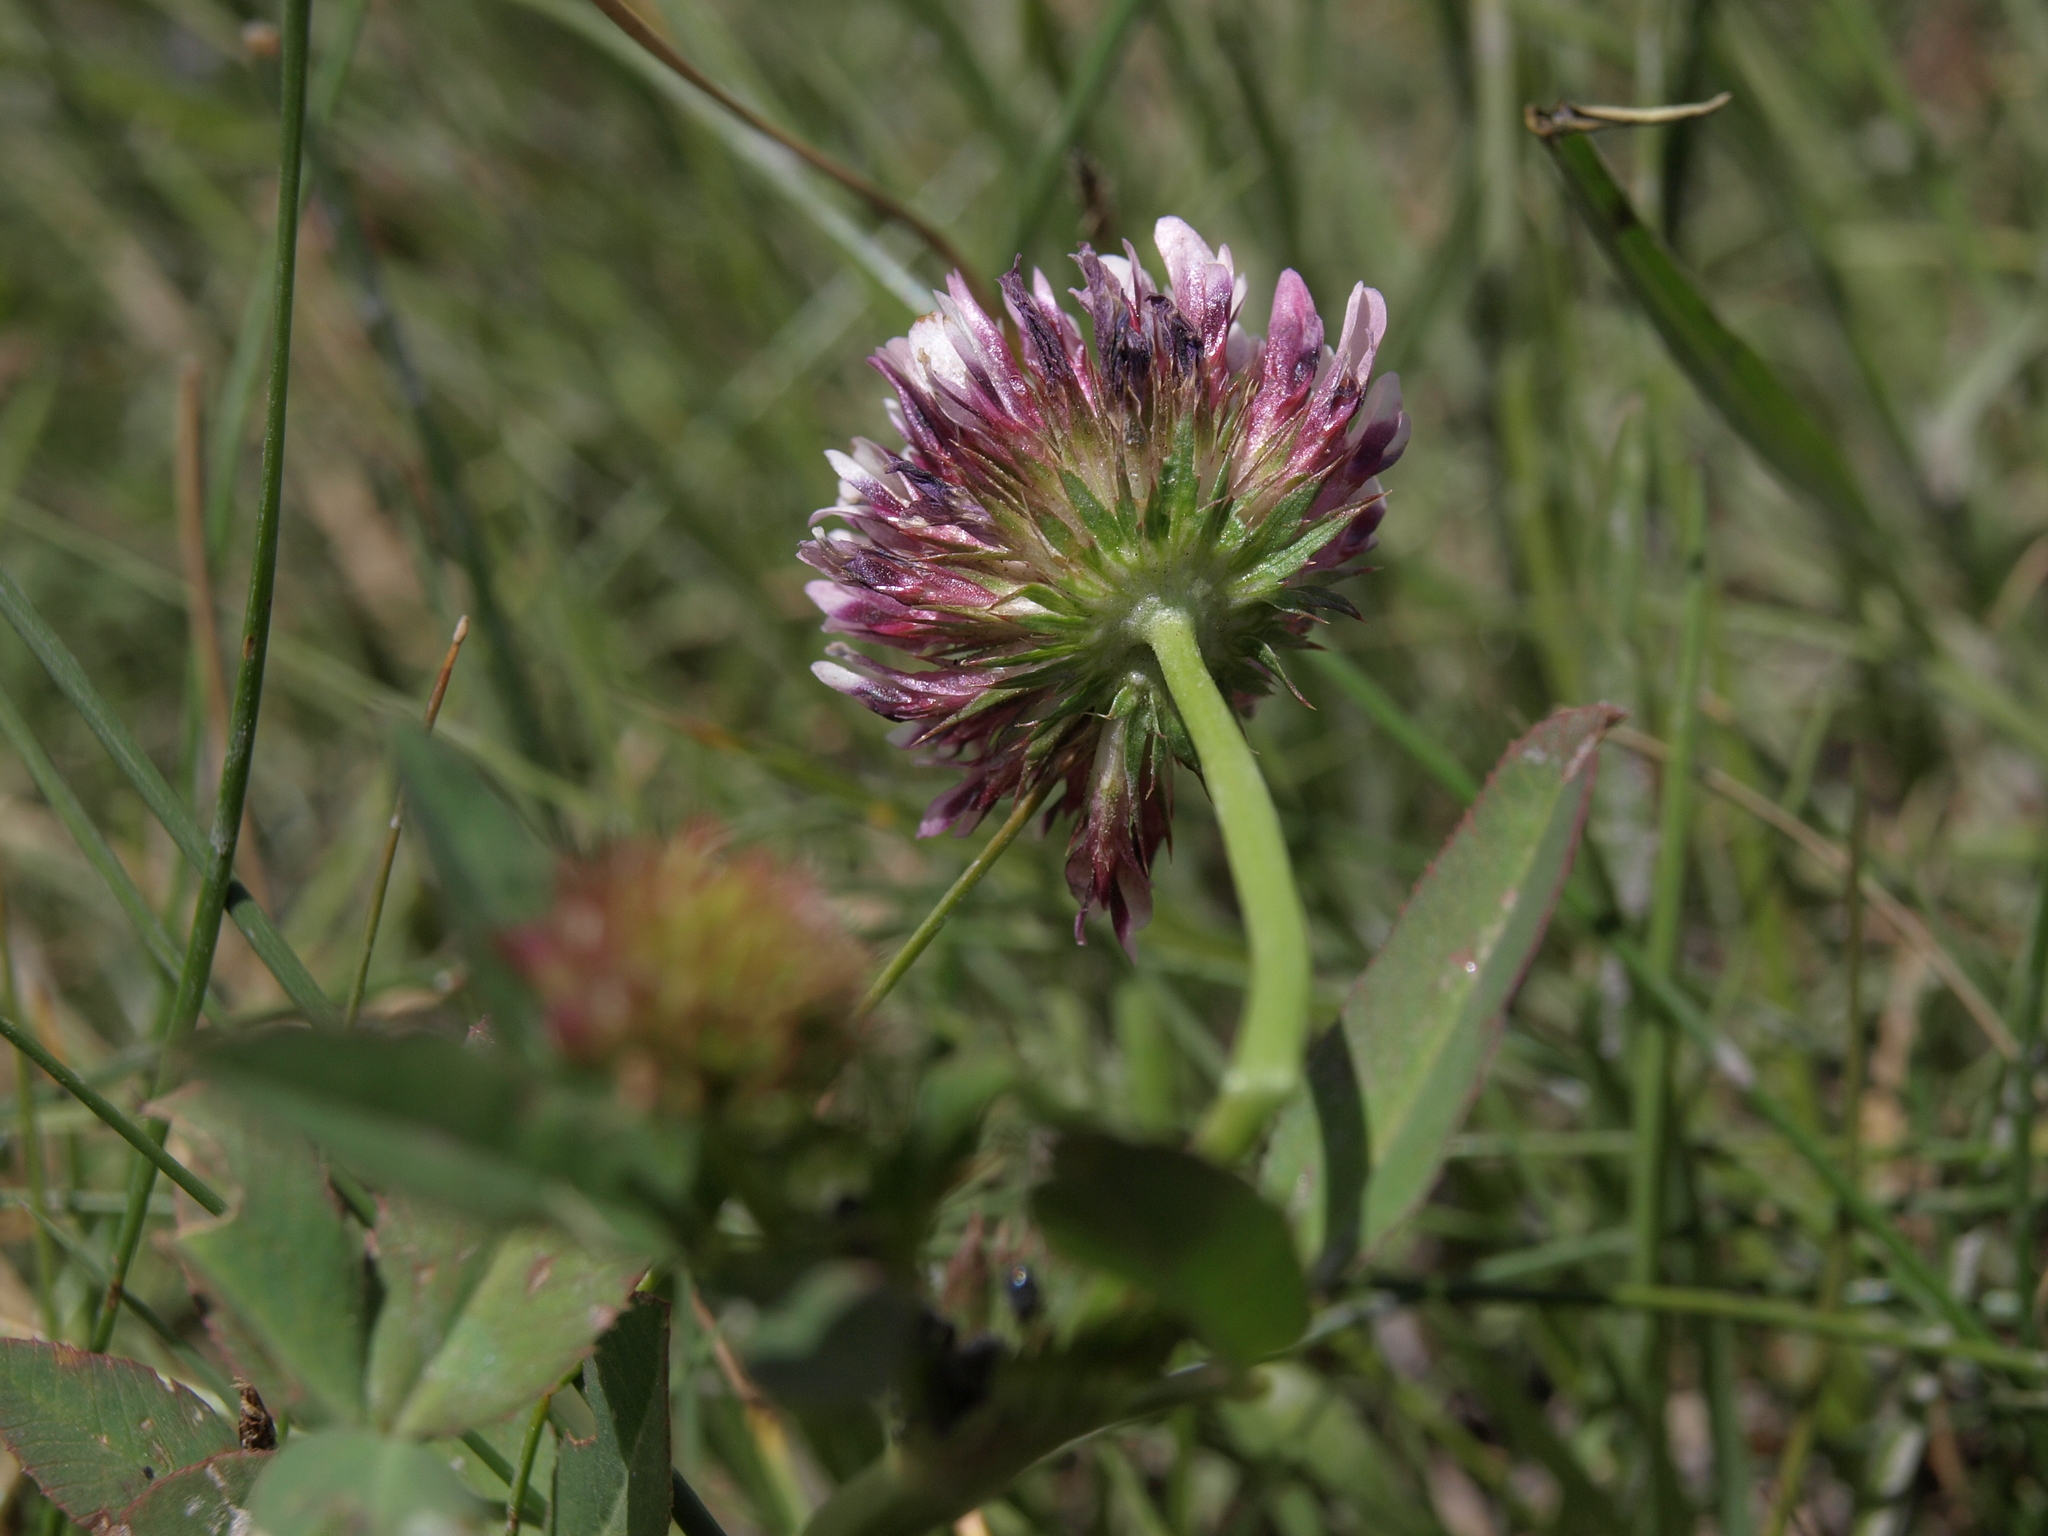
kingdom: Plantae
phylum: Tracheophyta
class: Magnoliopsida
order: Fabales
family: Fabaceae
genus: Trifolium
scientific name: Trifolium wormskioldii
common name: Springbank clover
